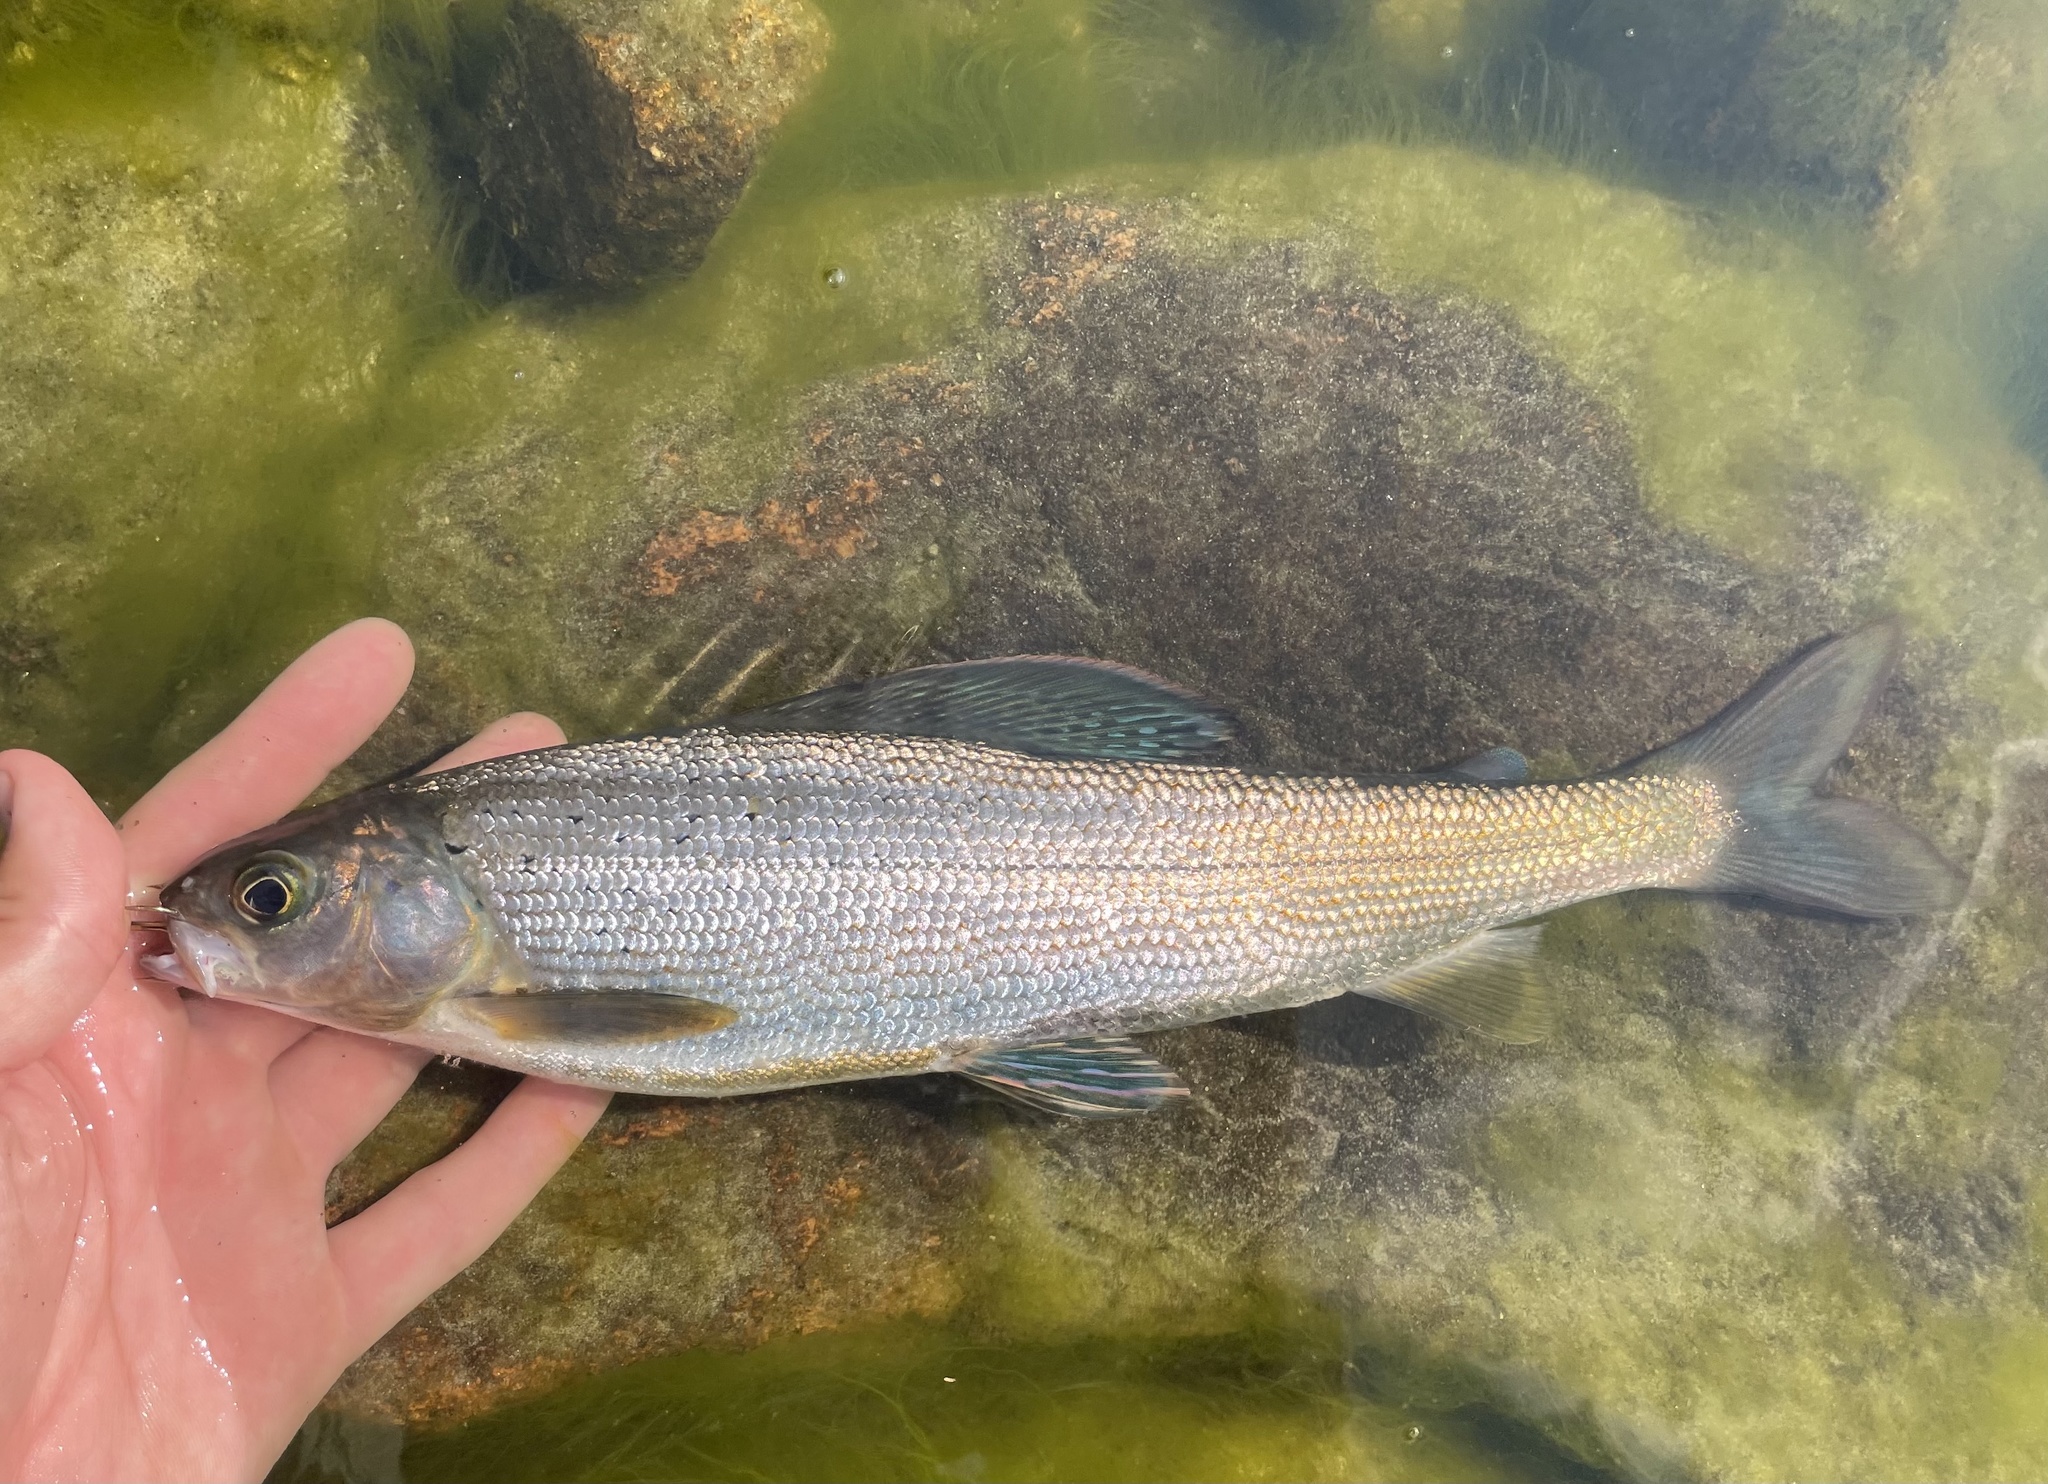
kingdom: Animalia
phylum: Chordata
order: Salmoniformes
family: Salmonidae
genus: Thymallus
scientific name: Thymallus arcticus
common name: Arctic grayling
